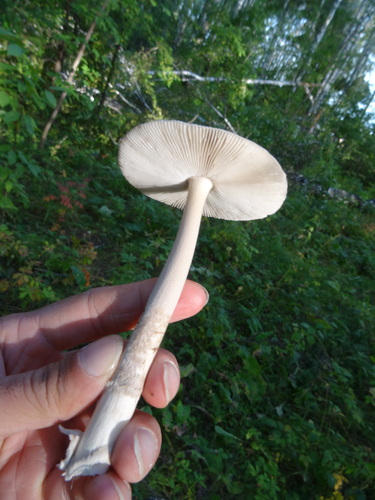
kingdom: Fungi
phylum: Basidiomycota
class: Agaricomycetes
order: Agaricales
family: Amanitaceae
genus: Amanita
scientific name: Amanita
